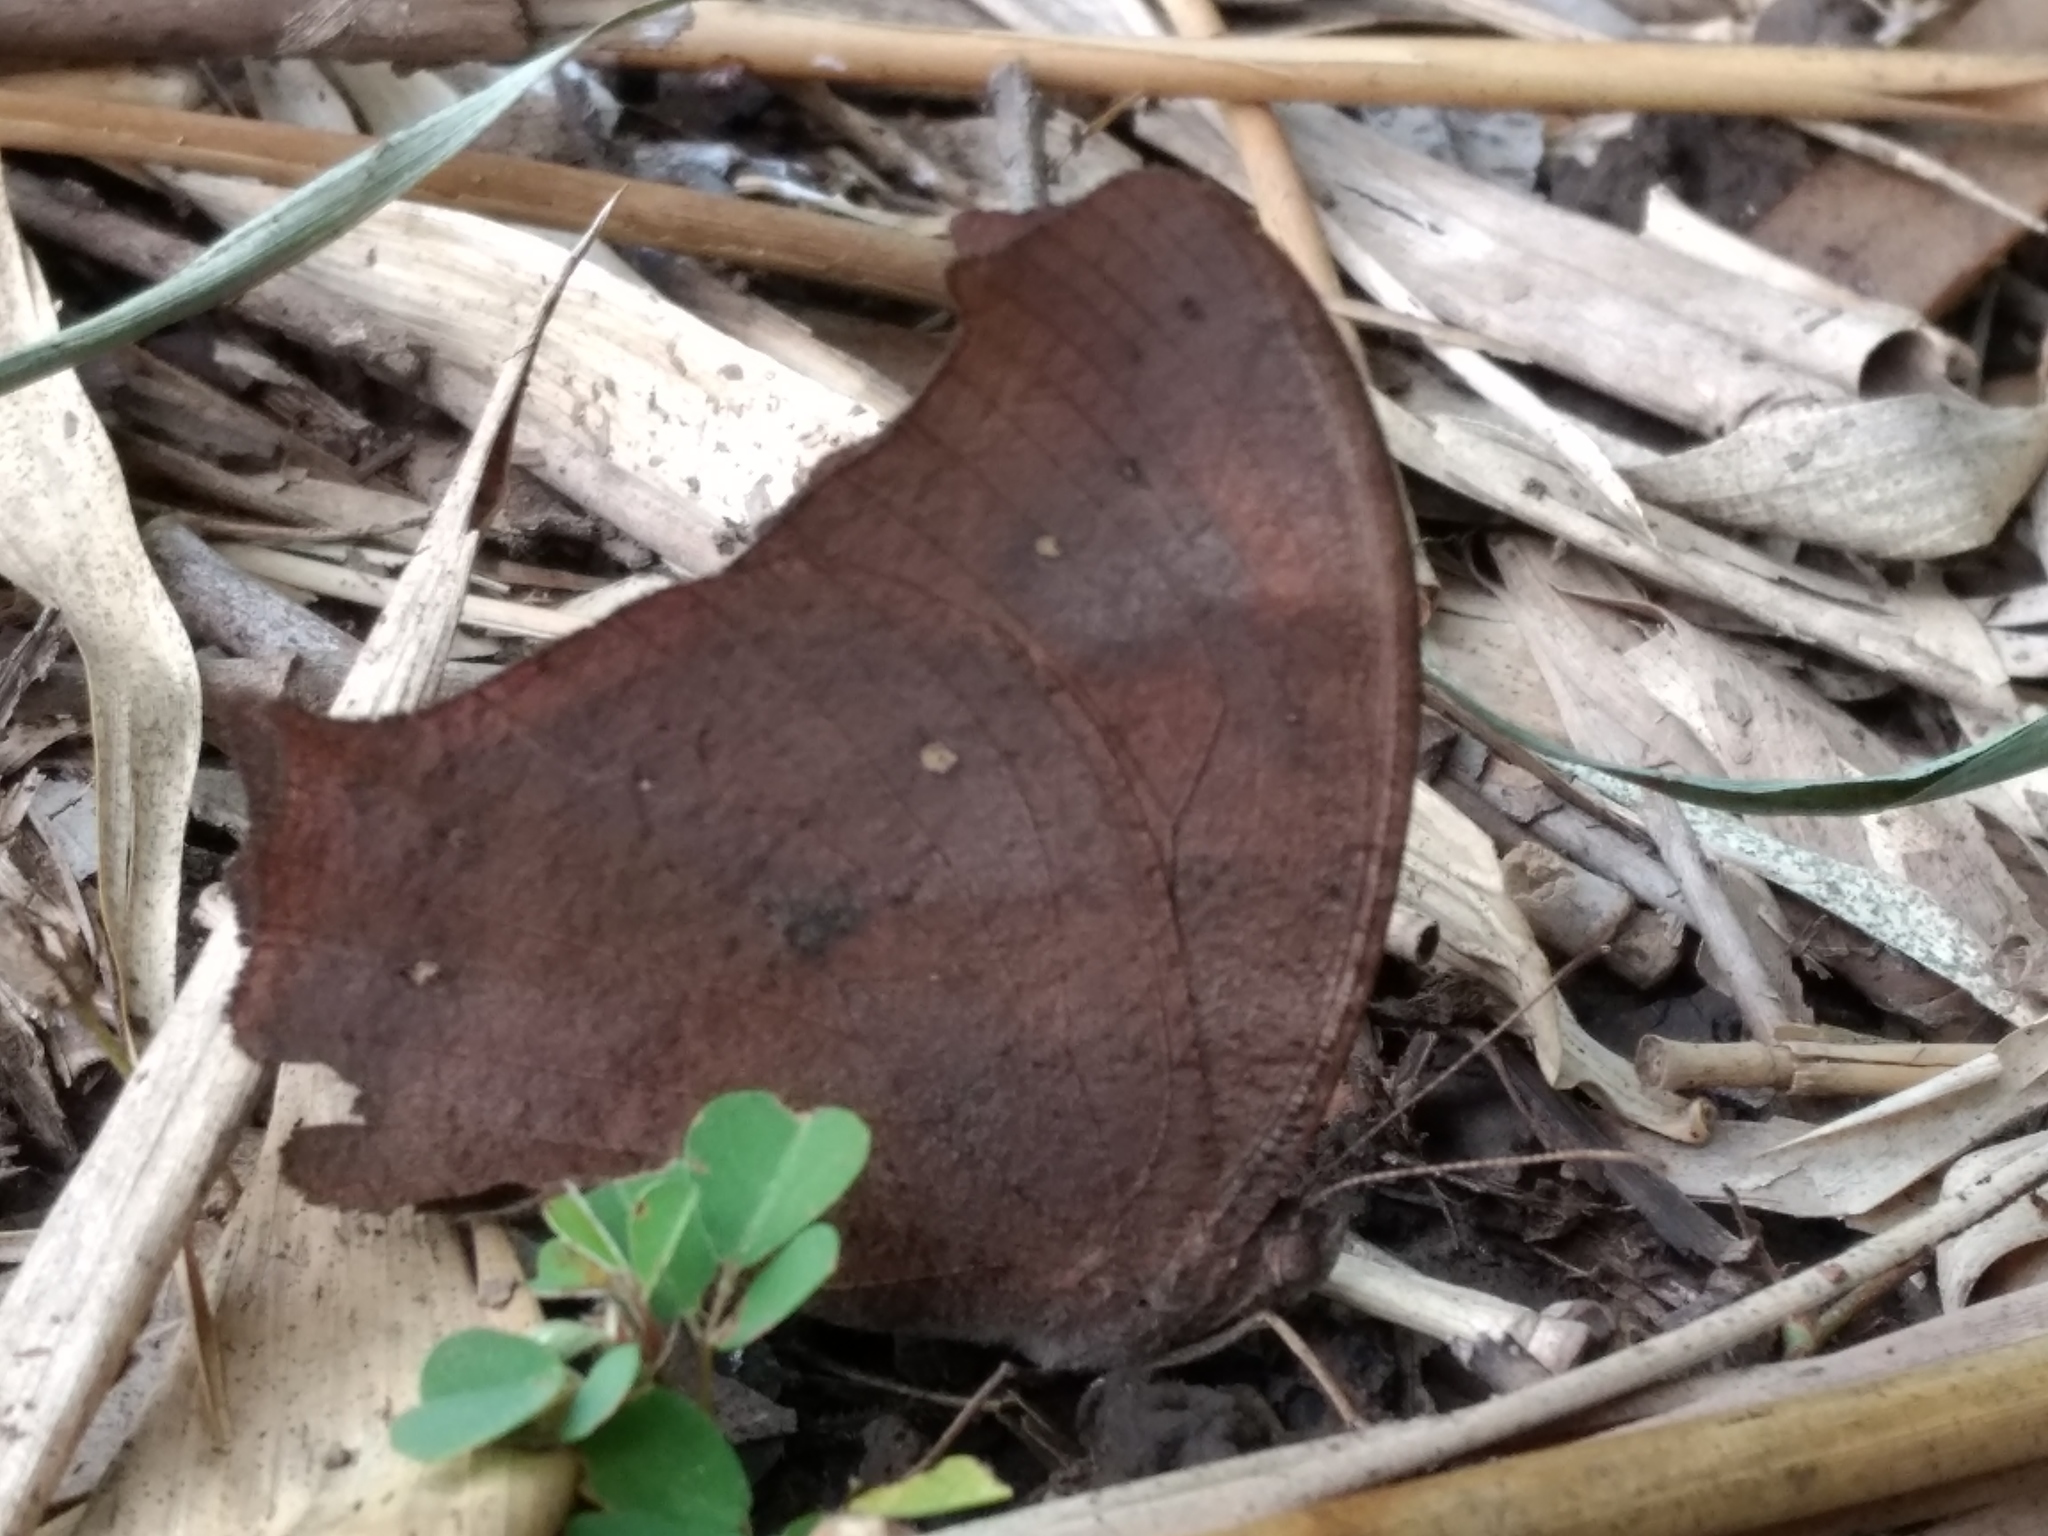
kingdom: Animalia
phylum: Arthropoda
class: Insecta
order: Lepidoptera
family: Nymphalidae
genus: Melanitis
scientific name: Melanitis leda
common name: Twilight brown
